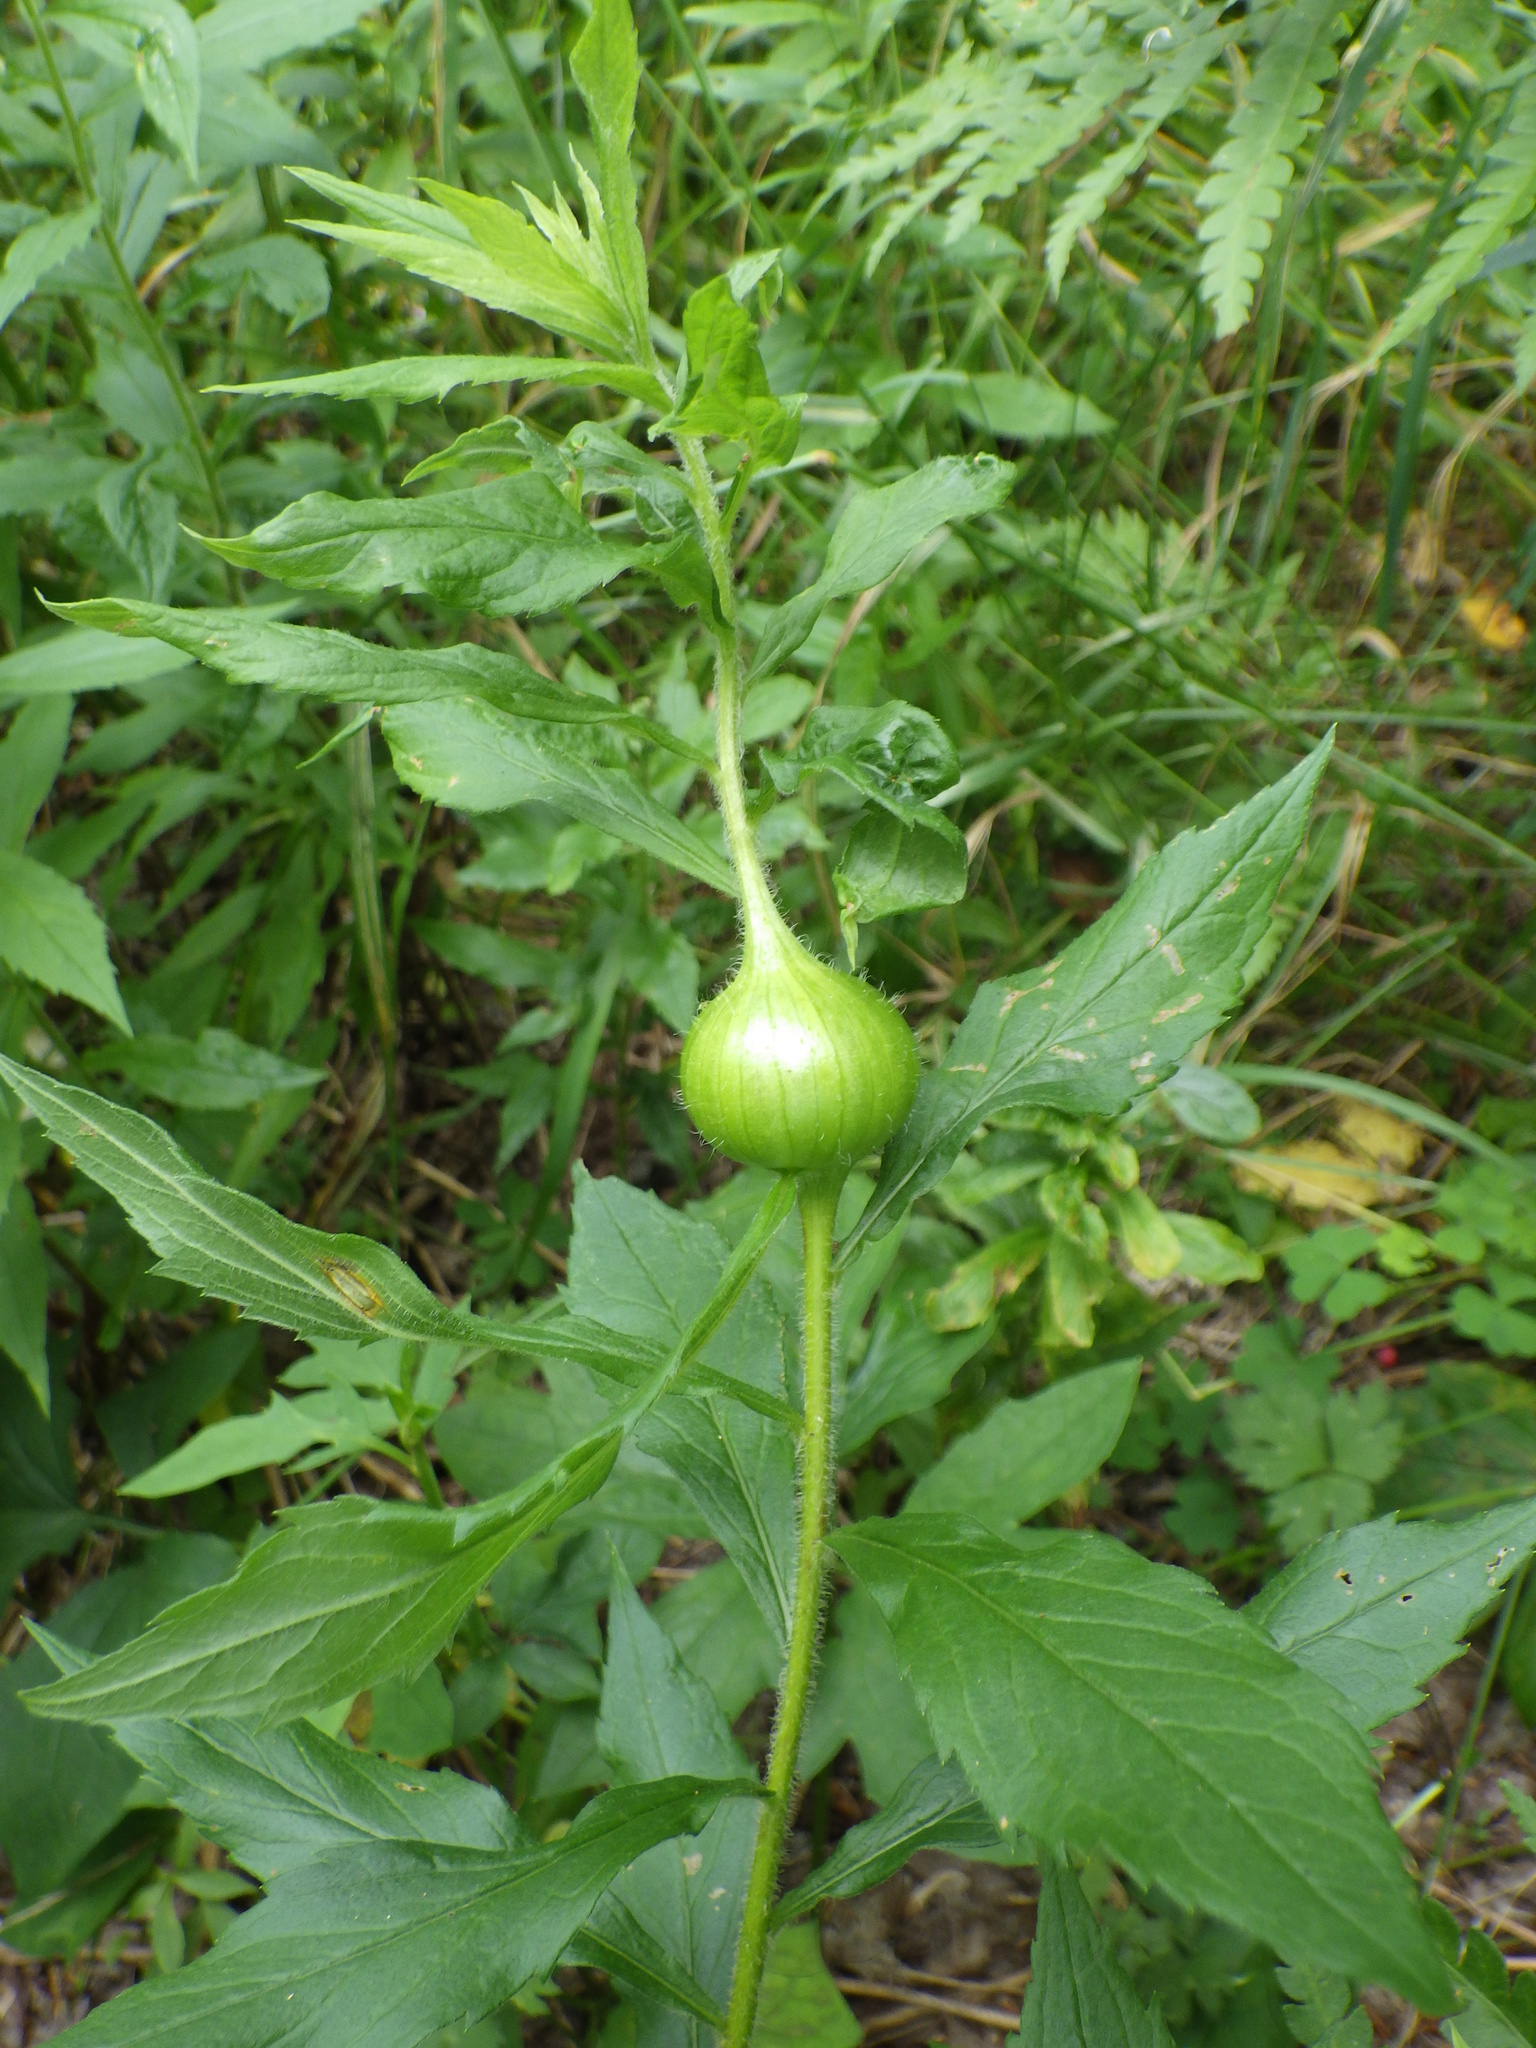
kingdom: Animalia
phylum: Arthropoda
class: Insecta
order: Diptera
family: Tephritidae
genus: Eurosta
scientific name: Eurosta solidaginis
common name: Goldenrod gall fly
